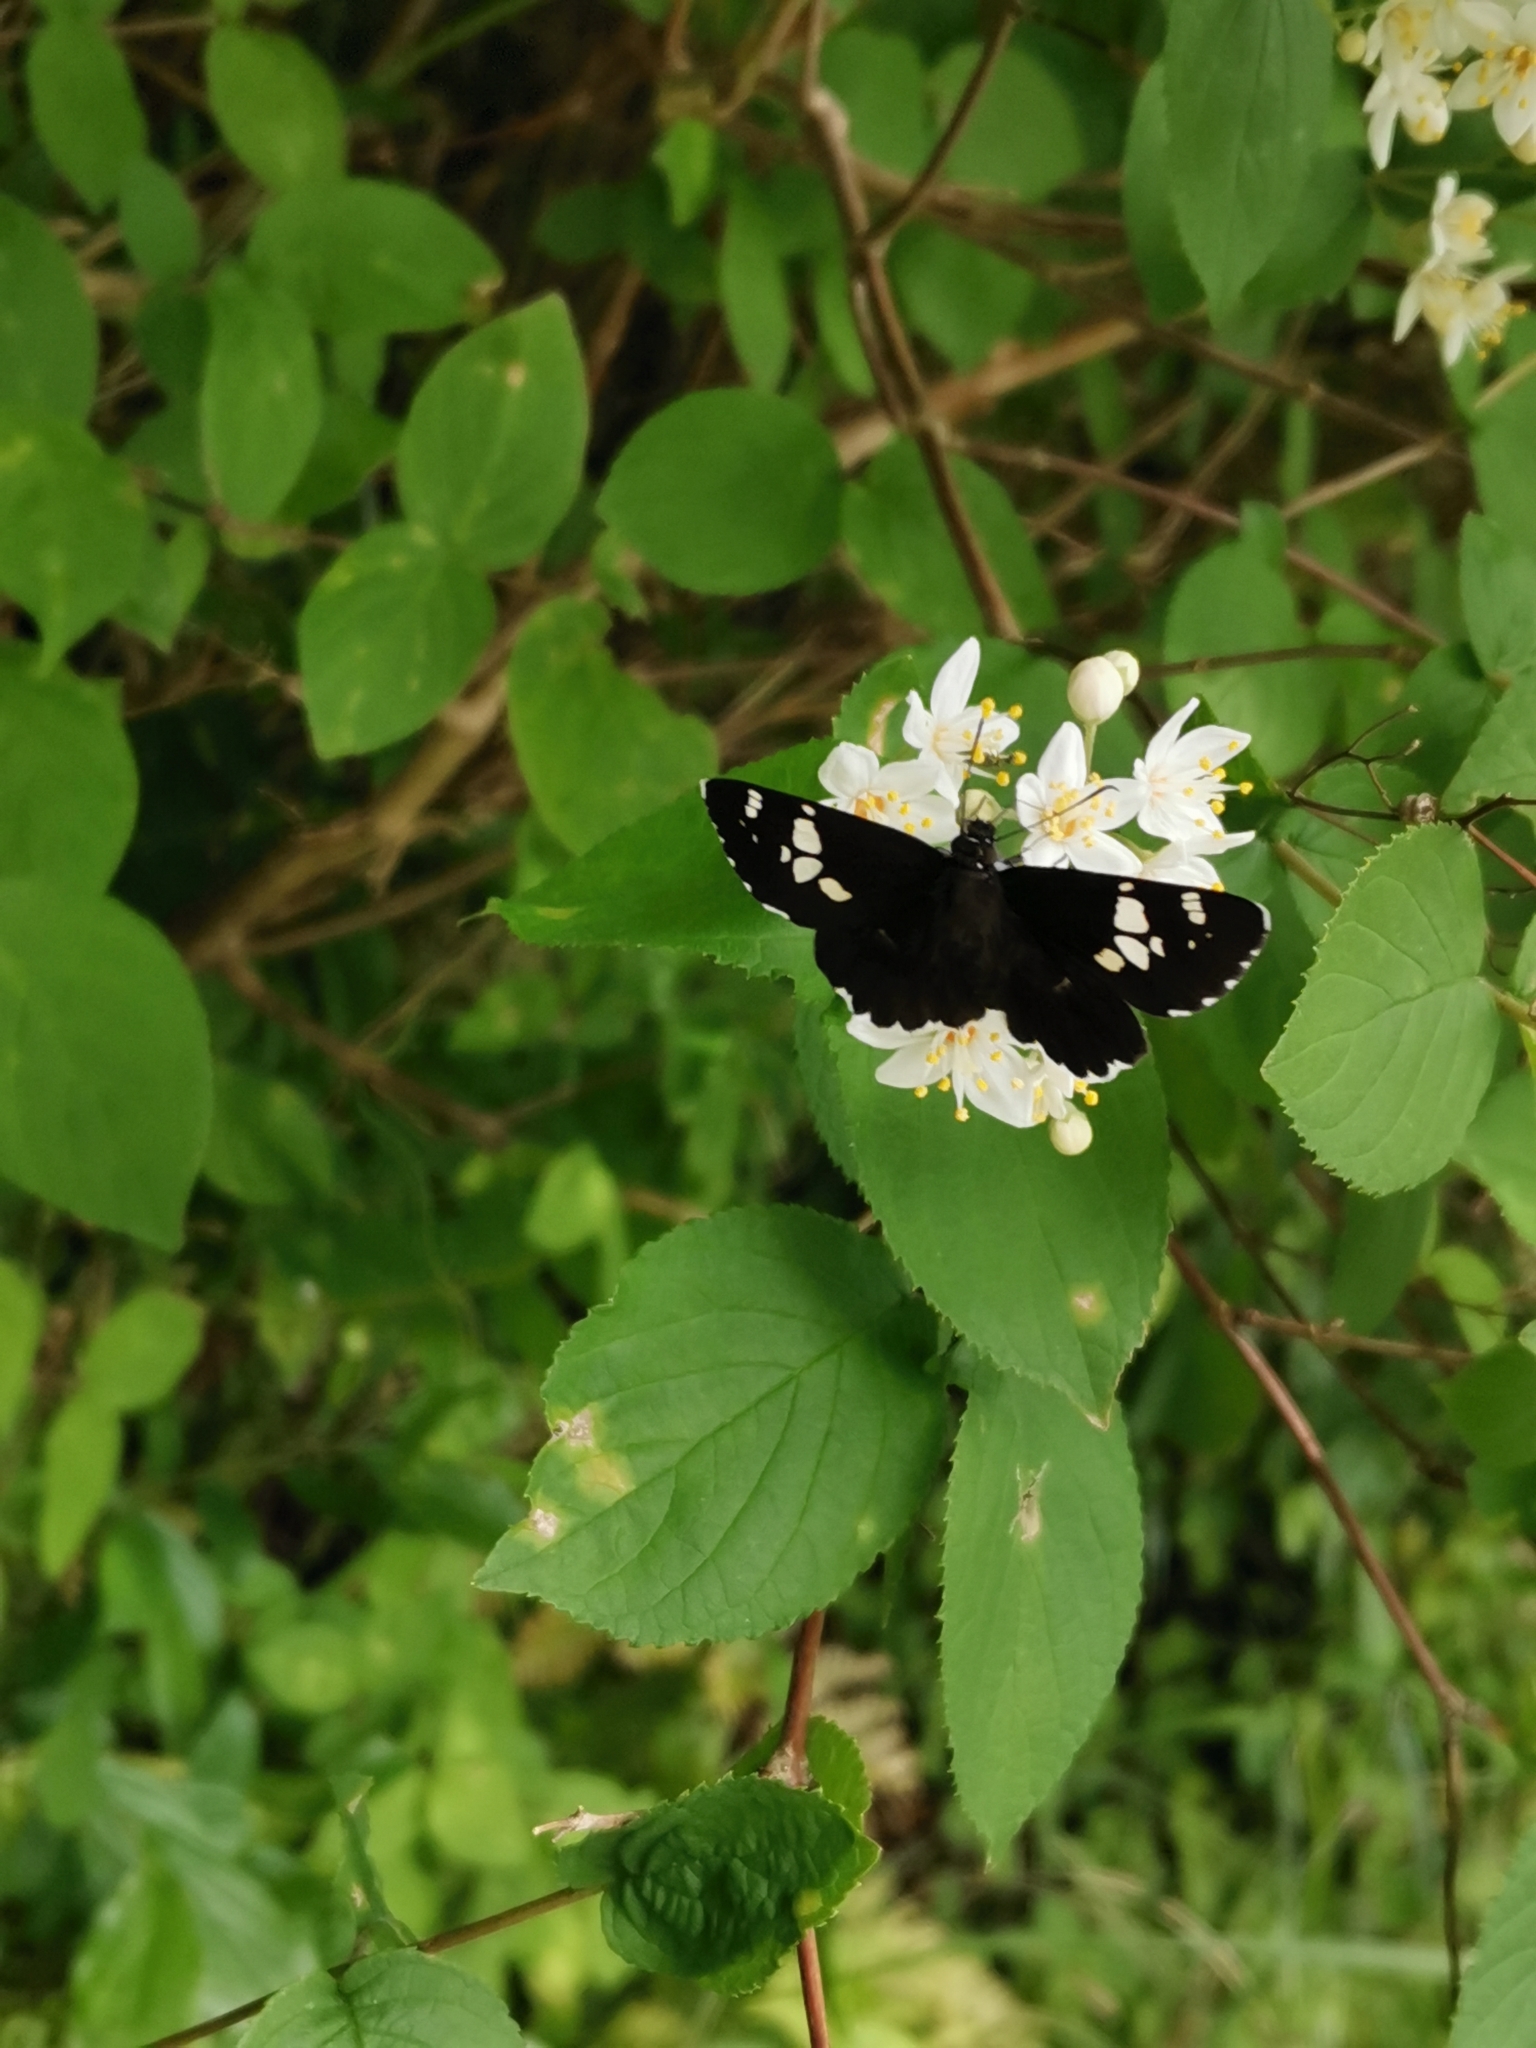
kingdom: Animalia
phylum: Arthropoda
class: Insecta
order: Lepidoptera
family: Hesperiidae
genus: Daimio
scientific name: Daimio tethys
